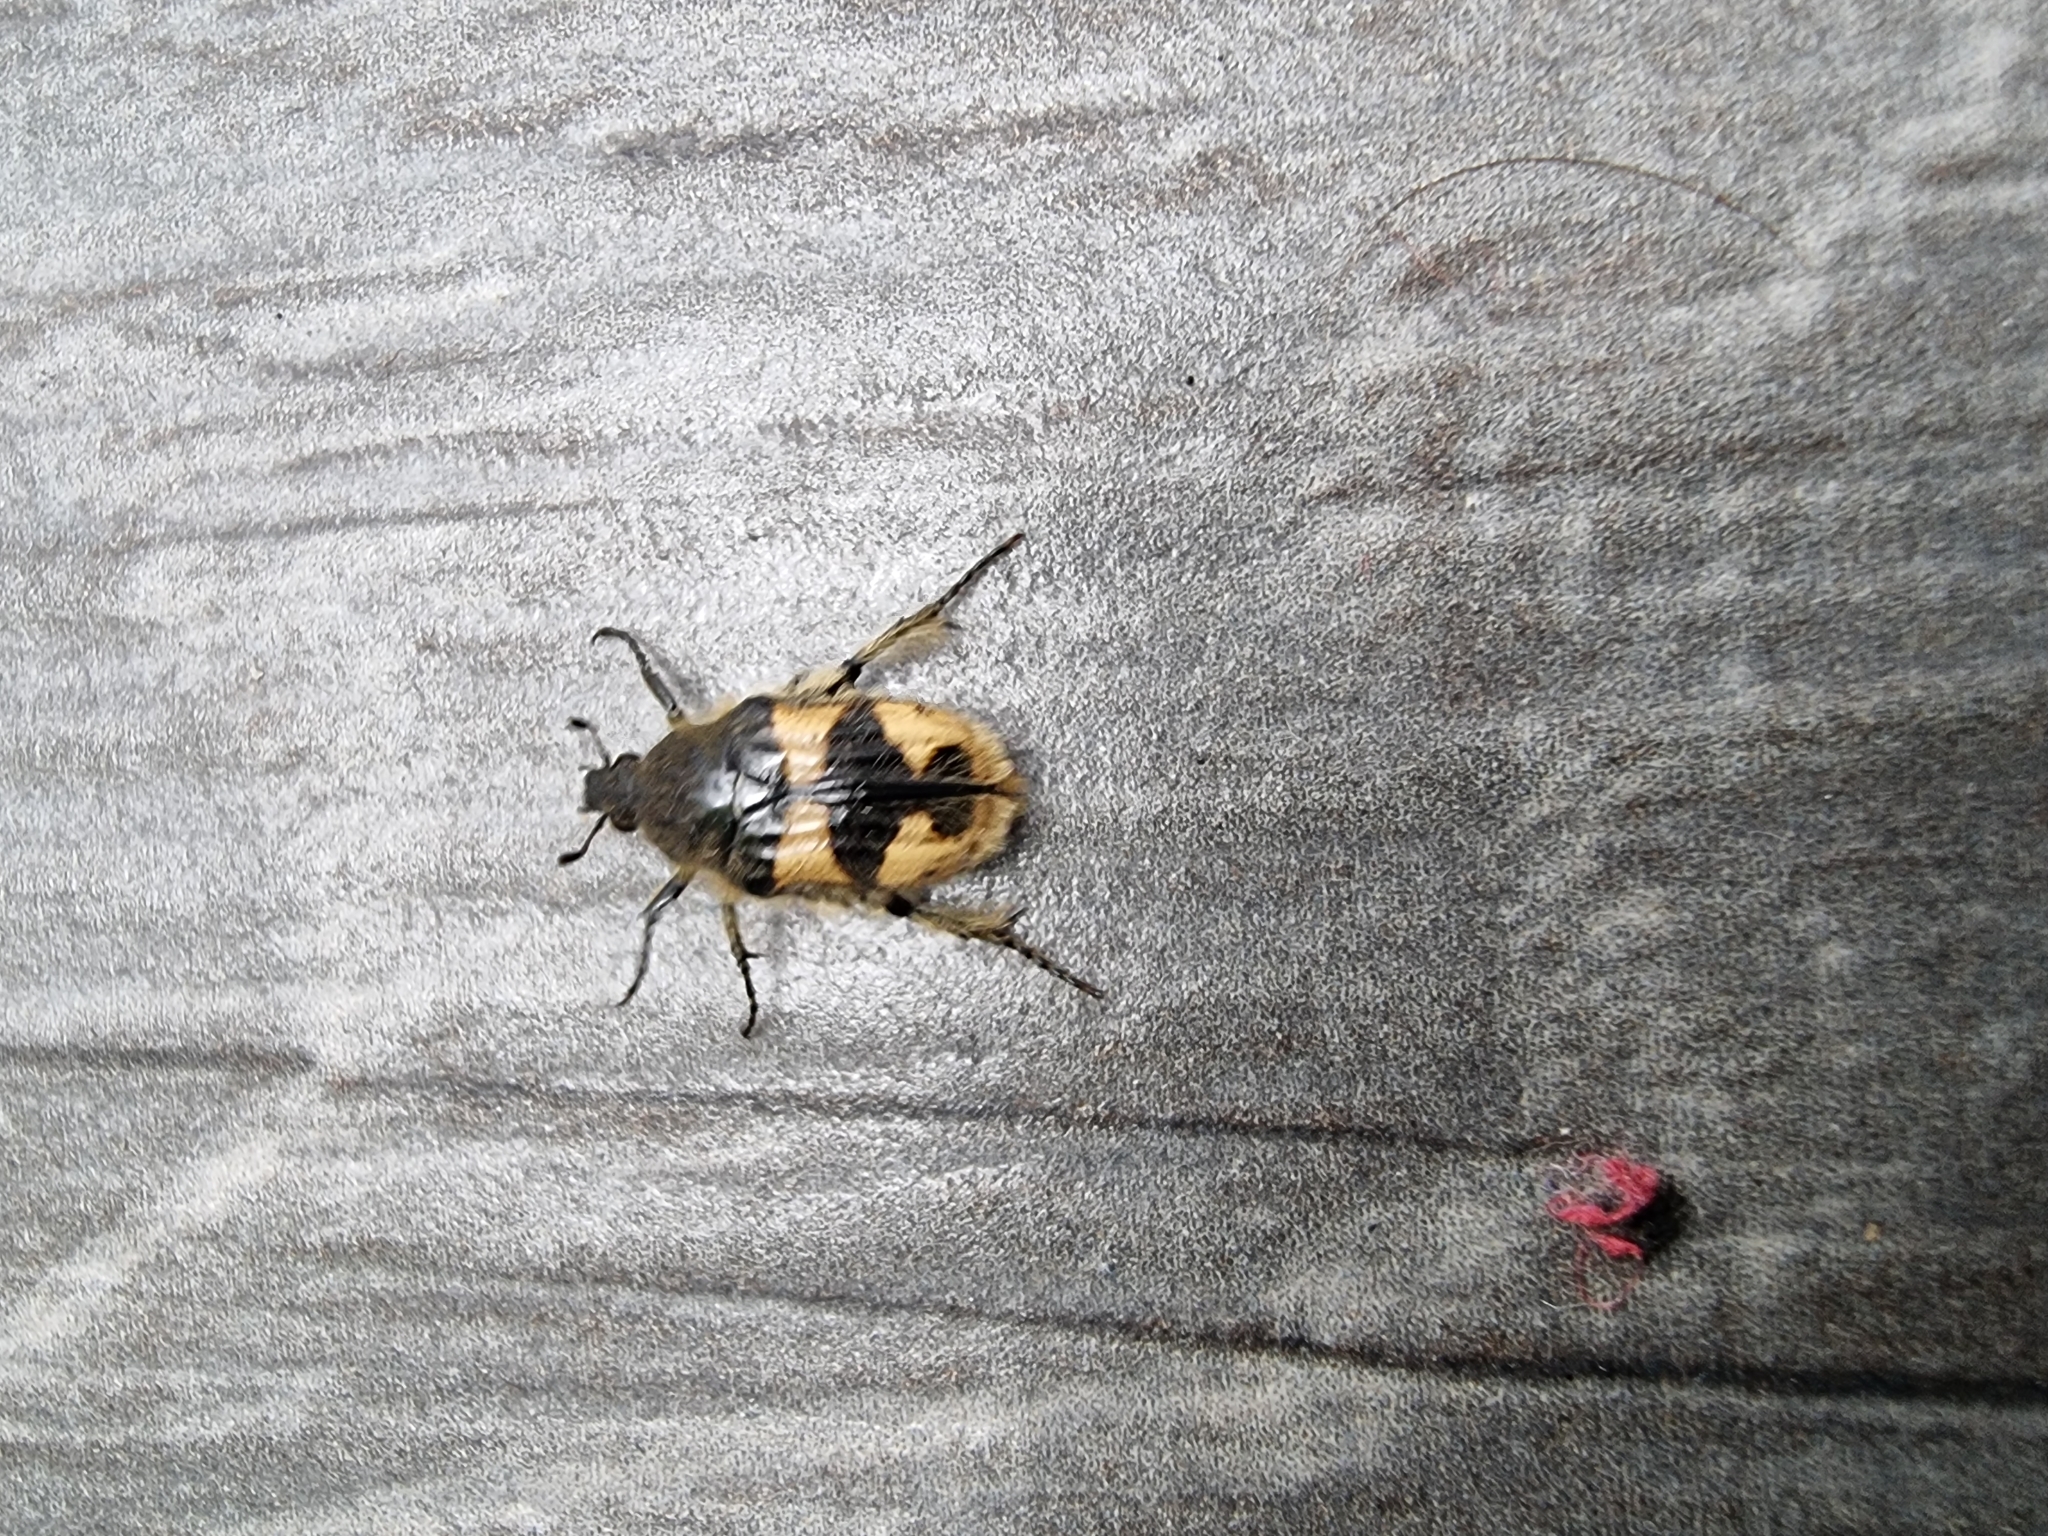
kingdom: Animalia
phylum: Arthropoda
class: Insecta
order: Coleoptera
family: Scarabaeidae
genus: Euphoria
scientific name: Euphoria basalis
